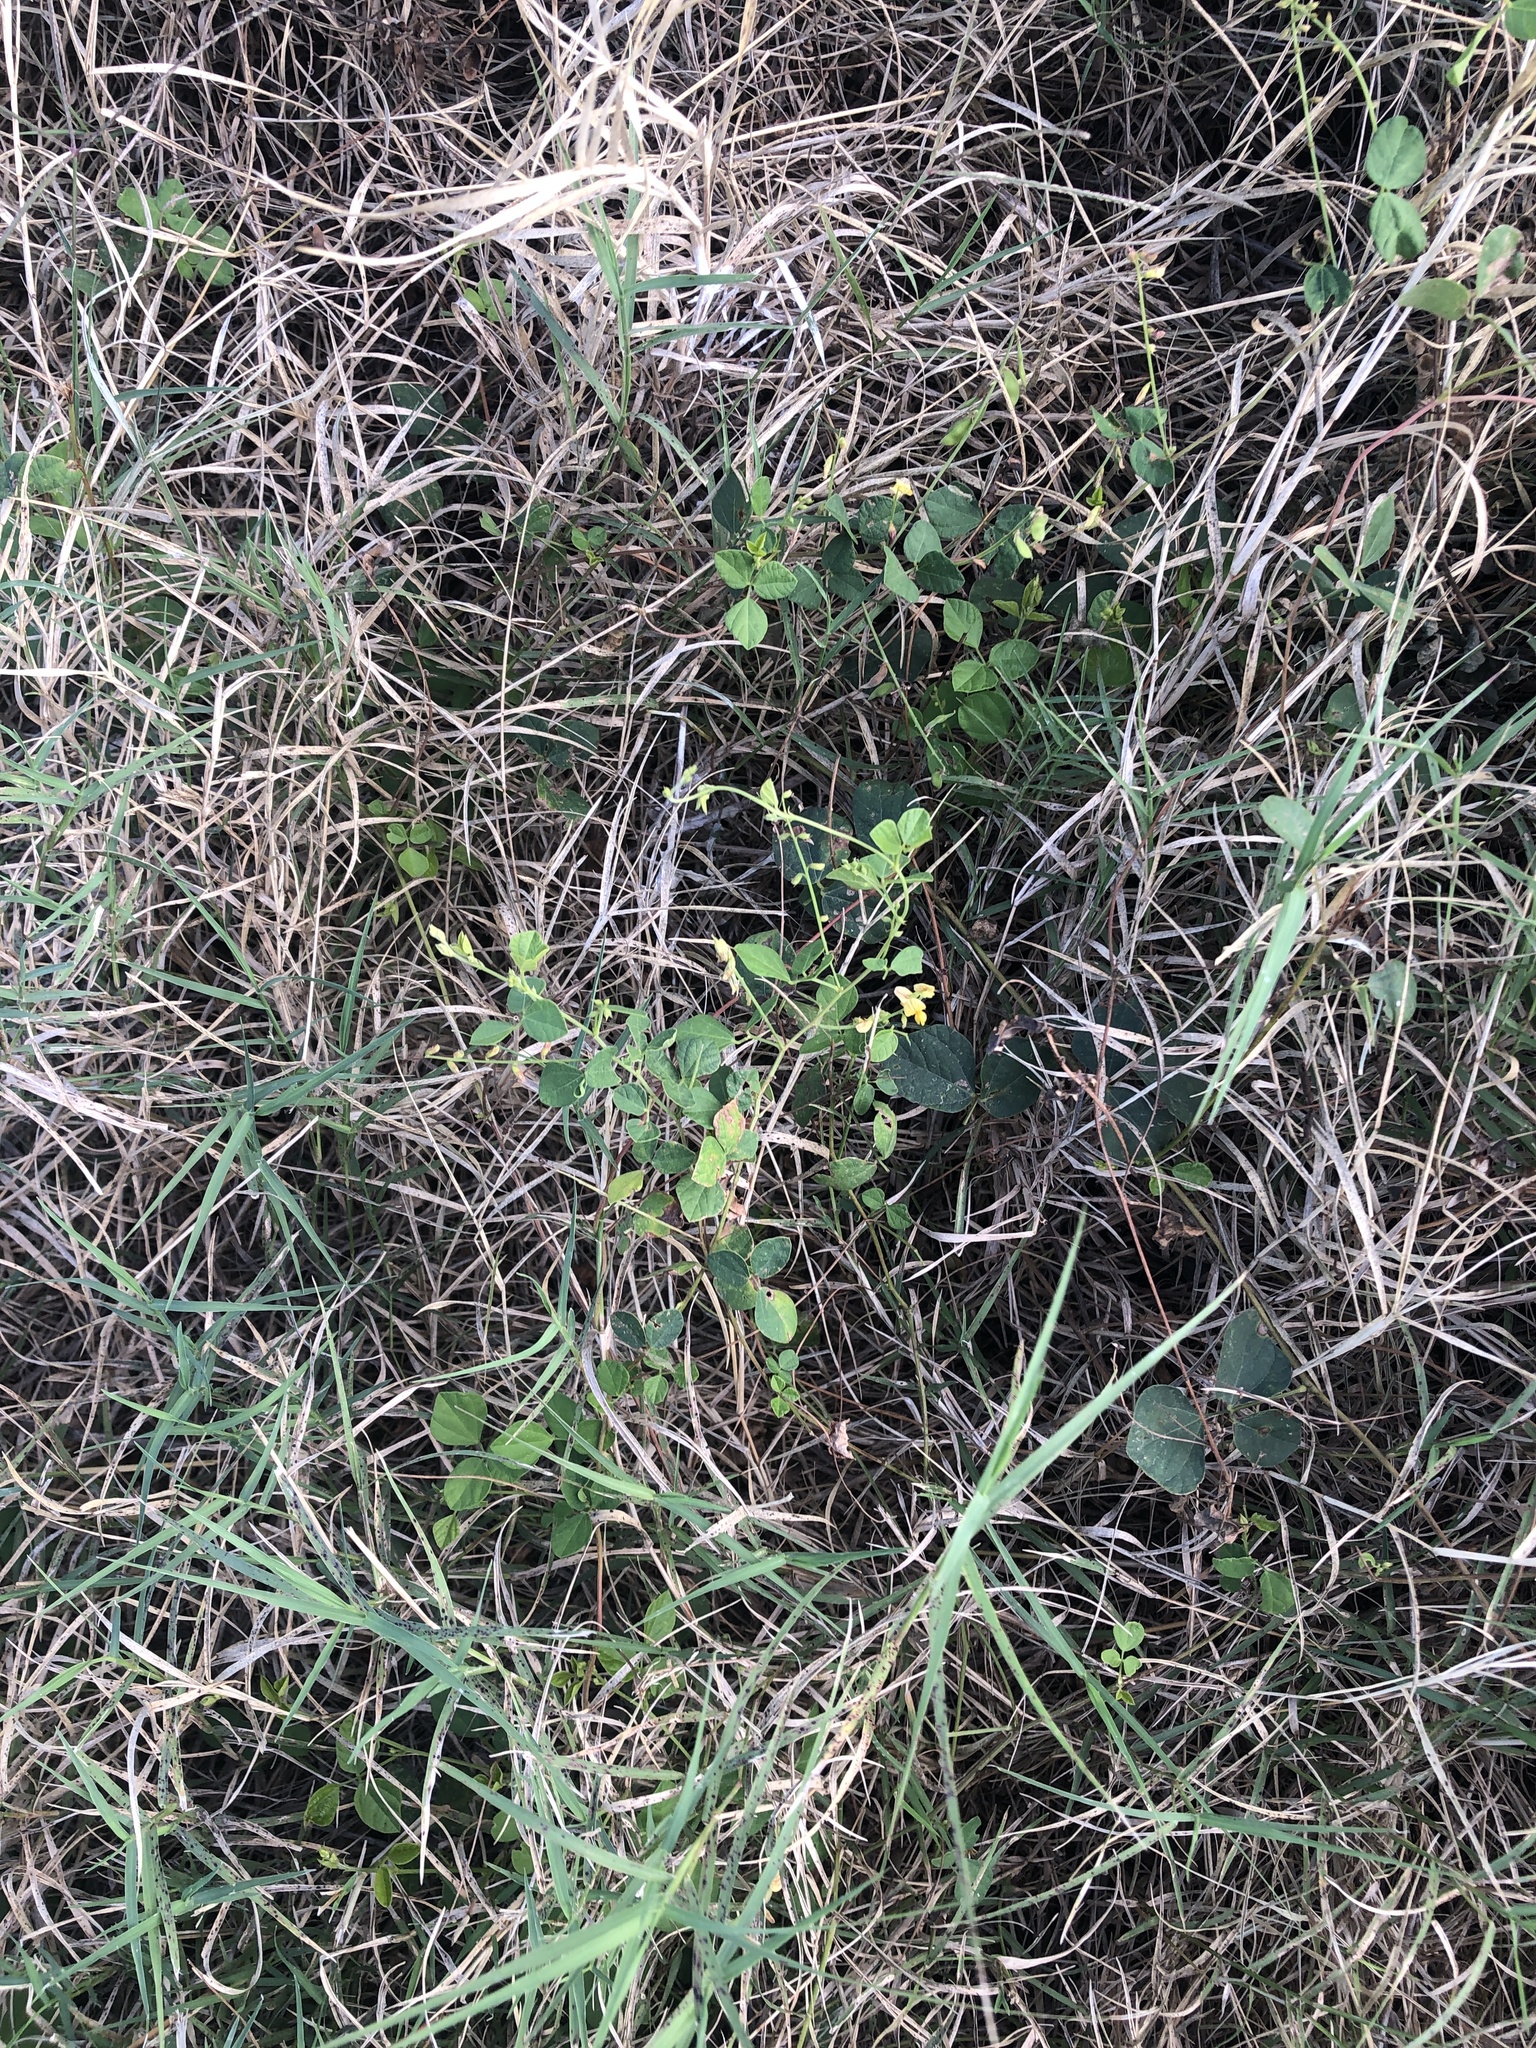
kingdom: Plantae
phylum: Tracheophyta
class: Magnoliopsida
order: Fabales
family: Fabaceae
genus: Rhynchosia
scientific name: Rhynchosia minima
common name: Least snoutbean
